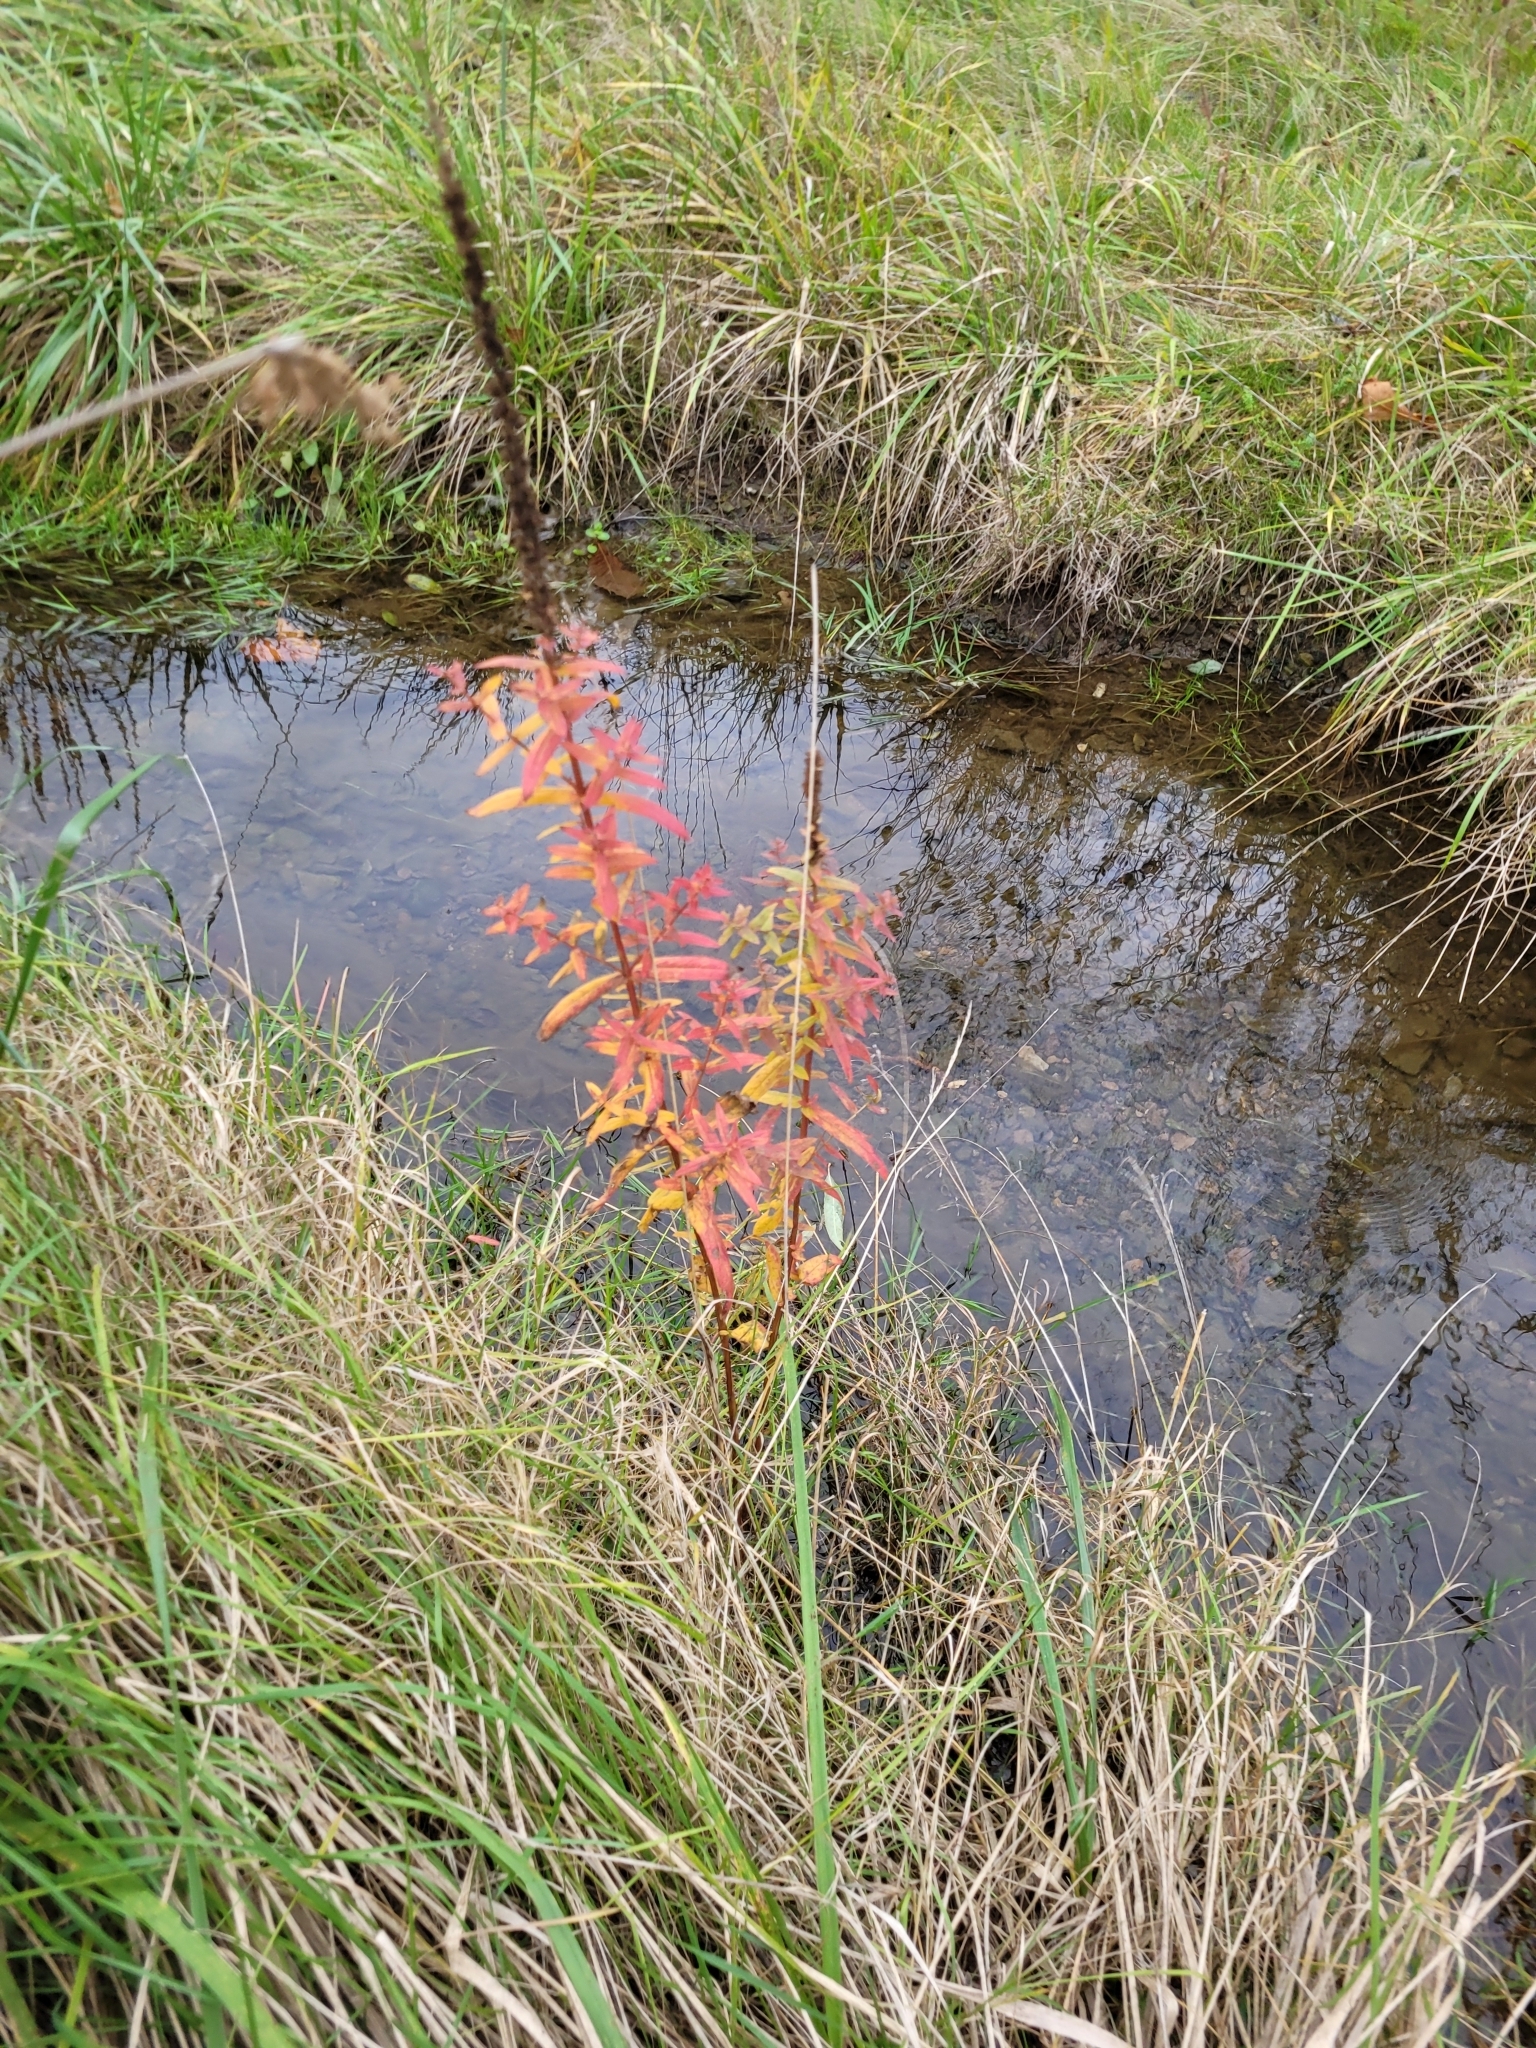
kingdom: Plantae
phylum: Tracheophyta
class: Magnoliopsida
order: Myrtales
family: Lythraceae
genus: Lythrum
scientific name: Lythrum salicaria
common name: Purple loosestrife
